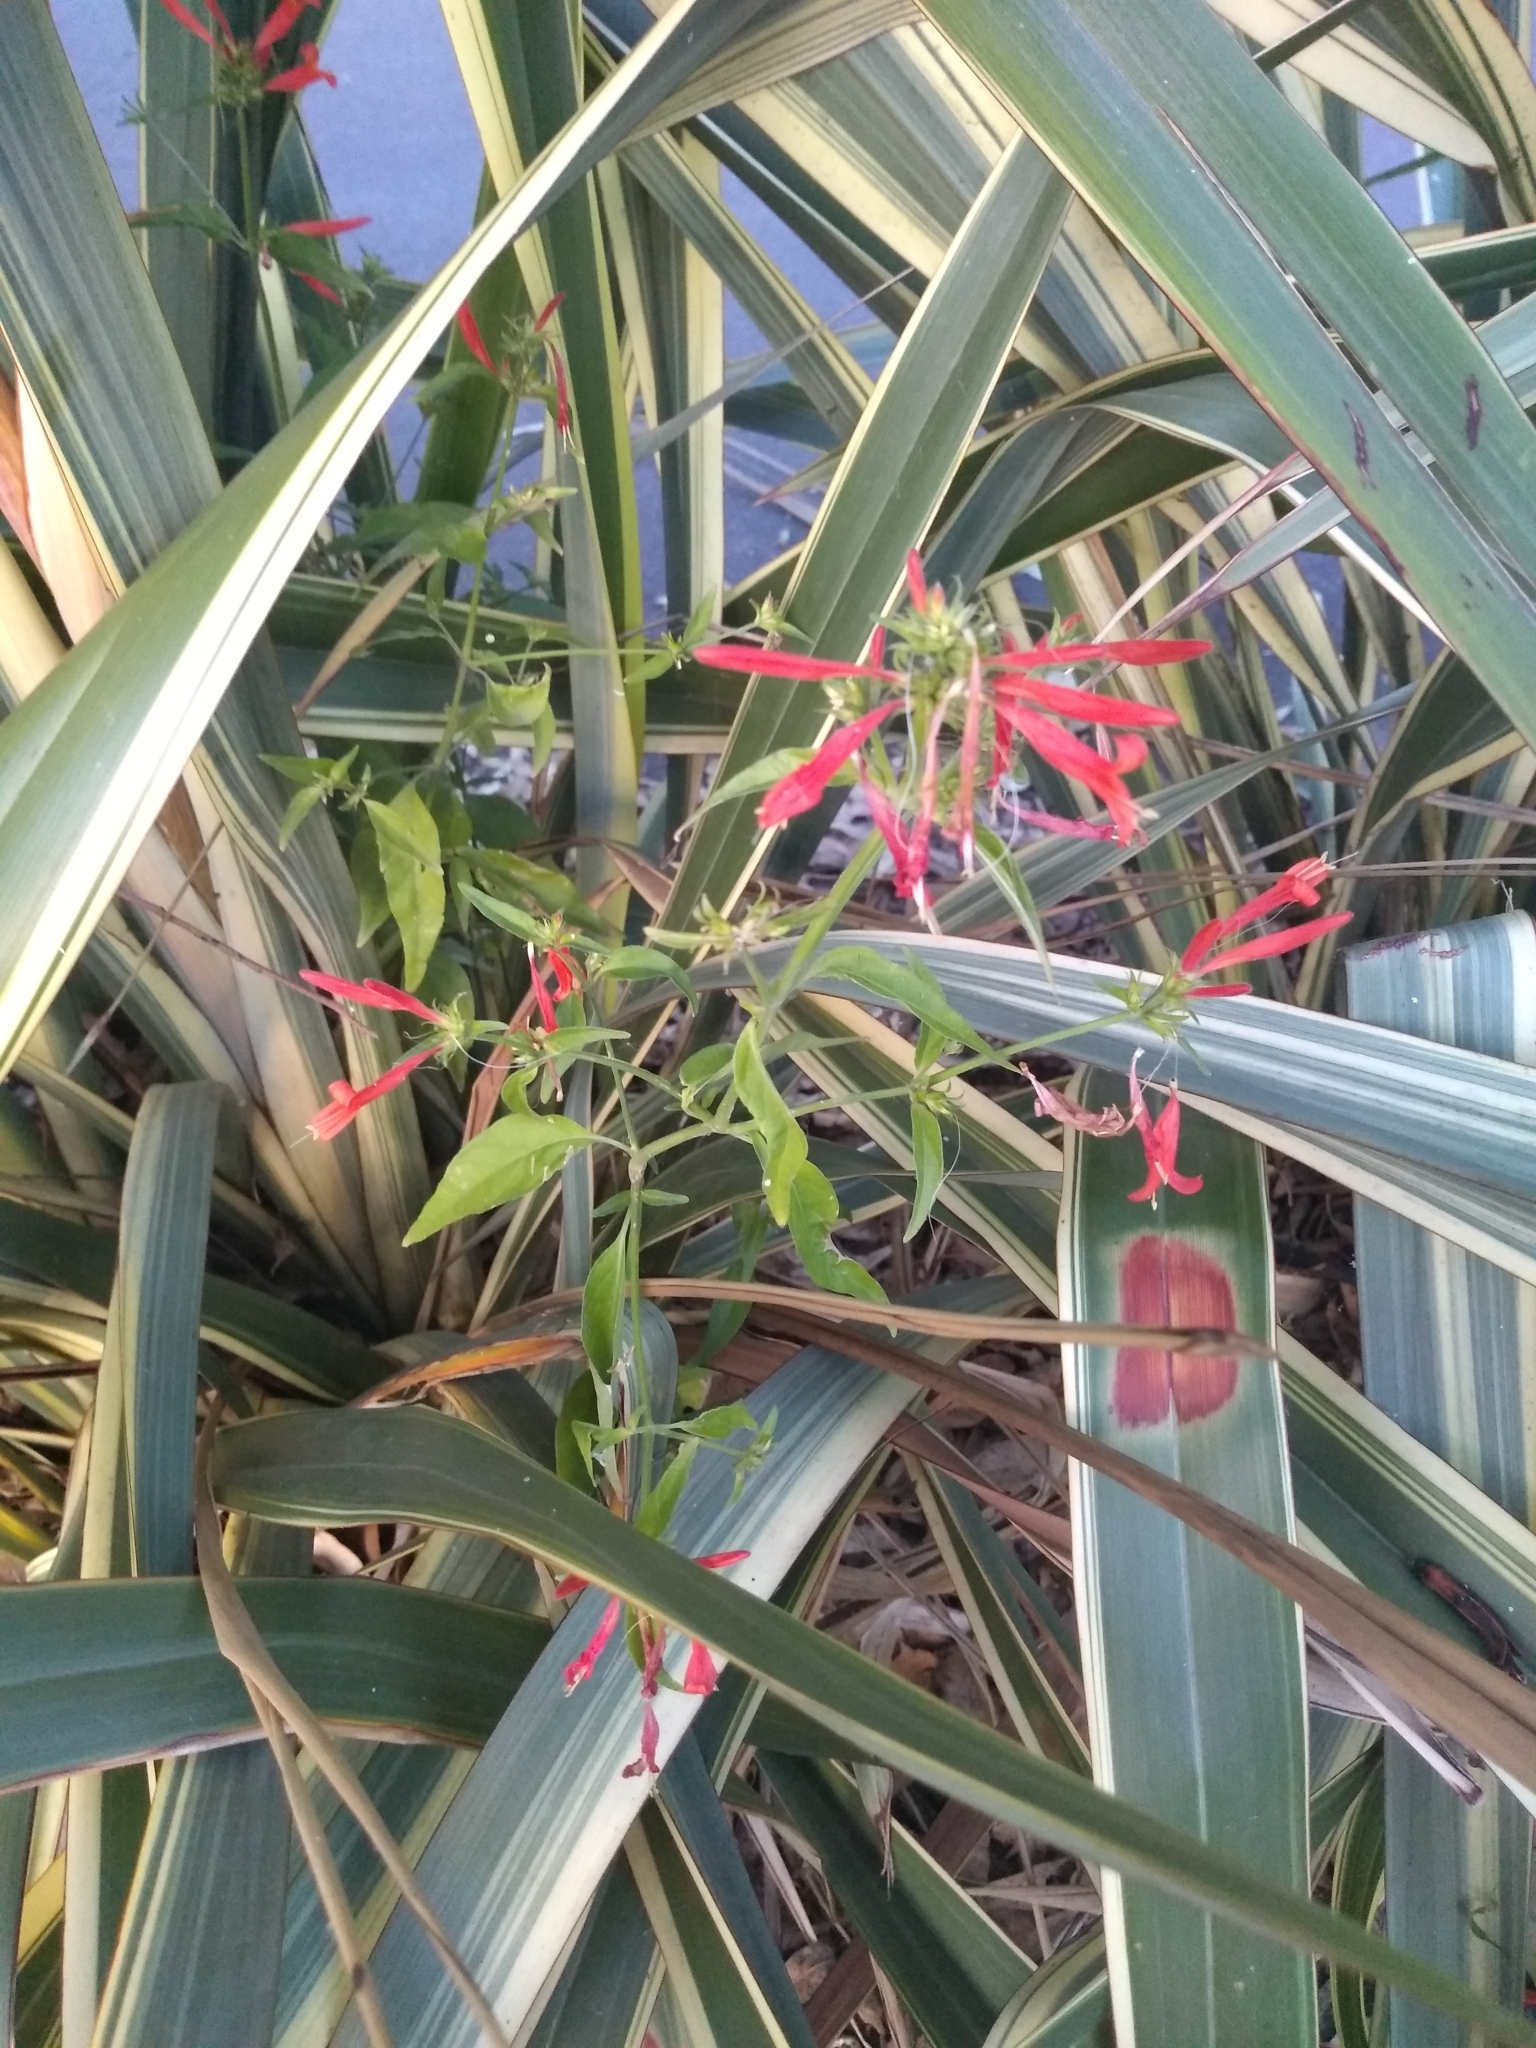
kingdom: Plantae
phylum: Tracheophyta
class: Magnoliopsida
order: Lamiales
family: Acanthaceae
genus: Dicliptera
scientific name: Dicliptera squarrosa
